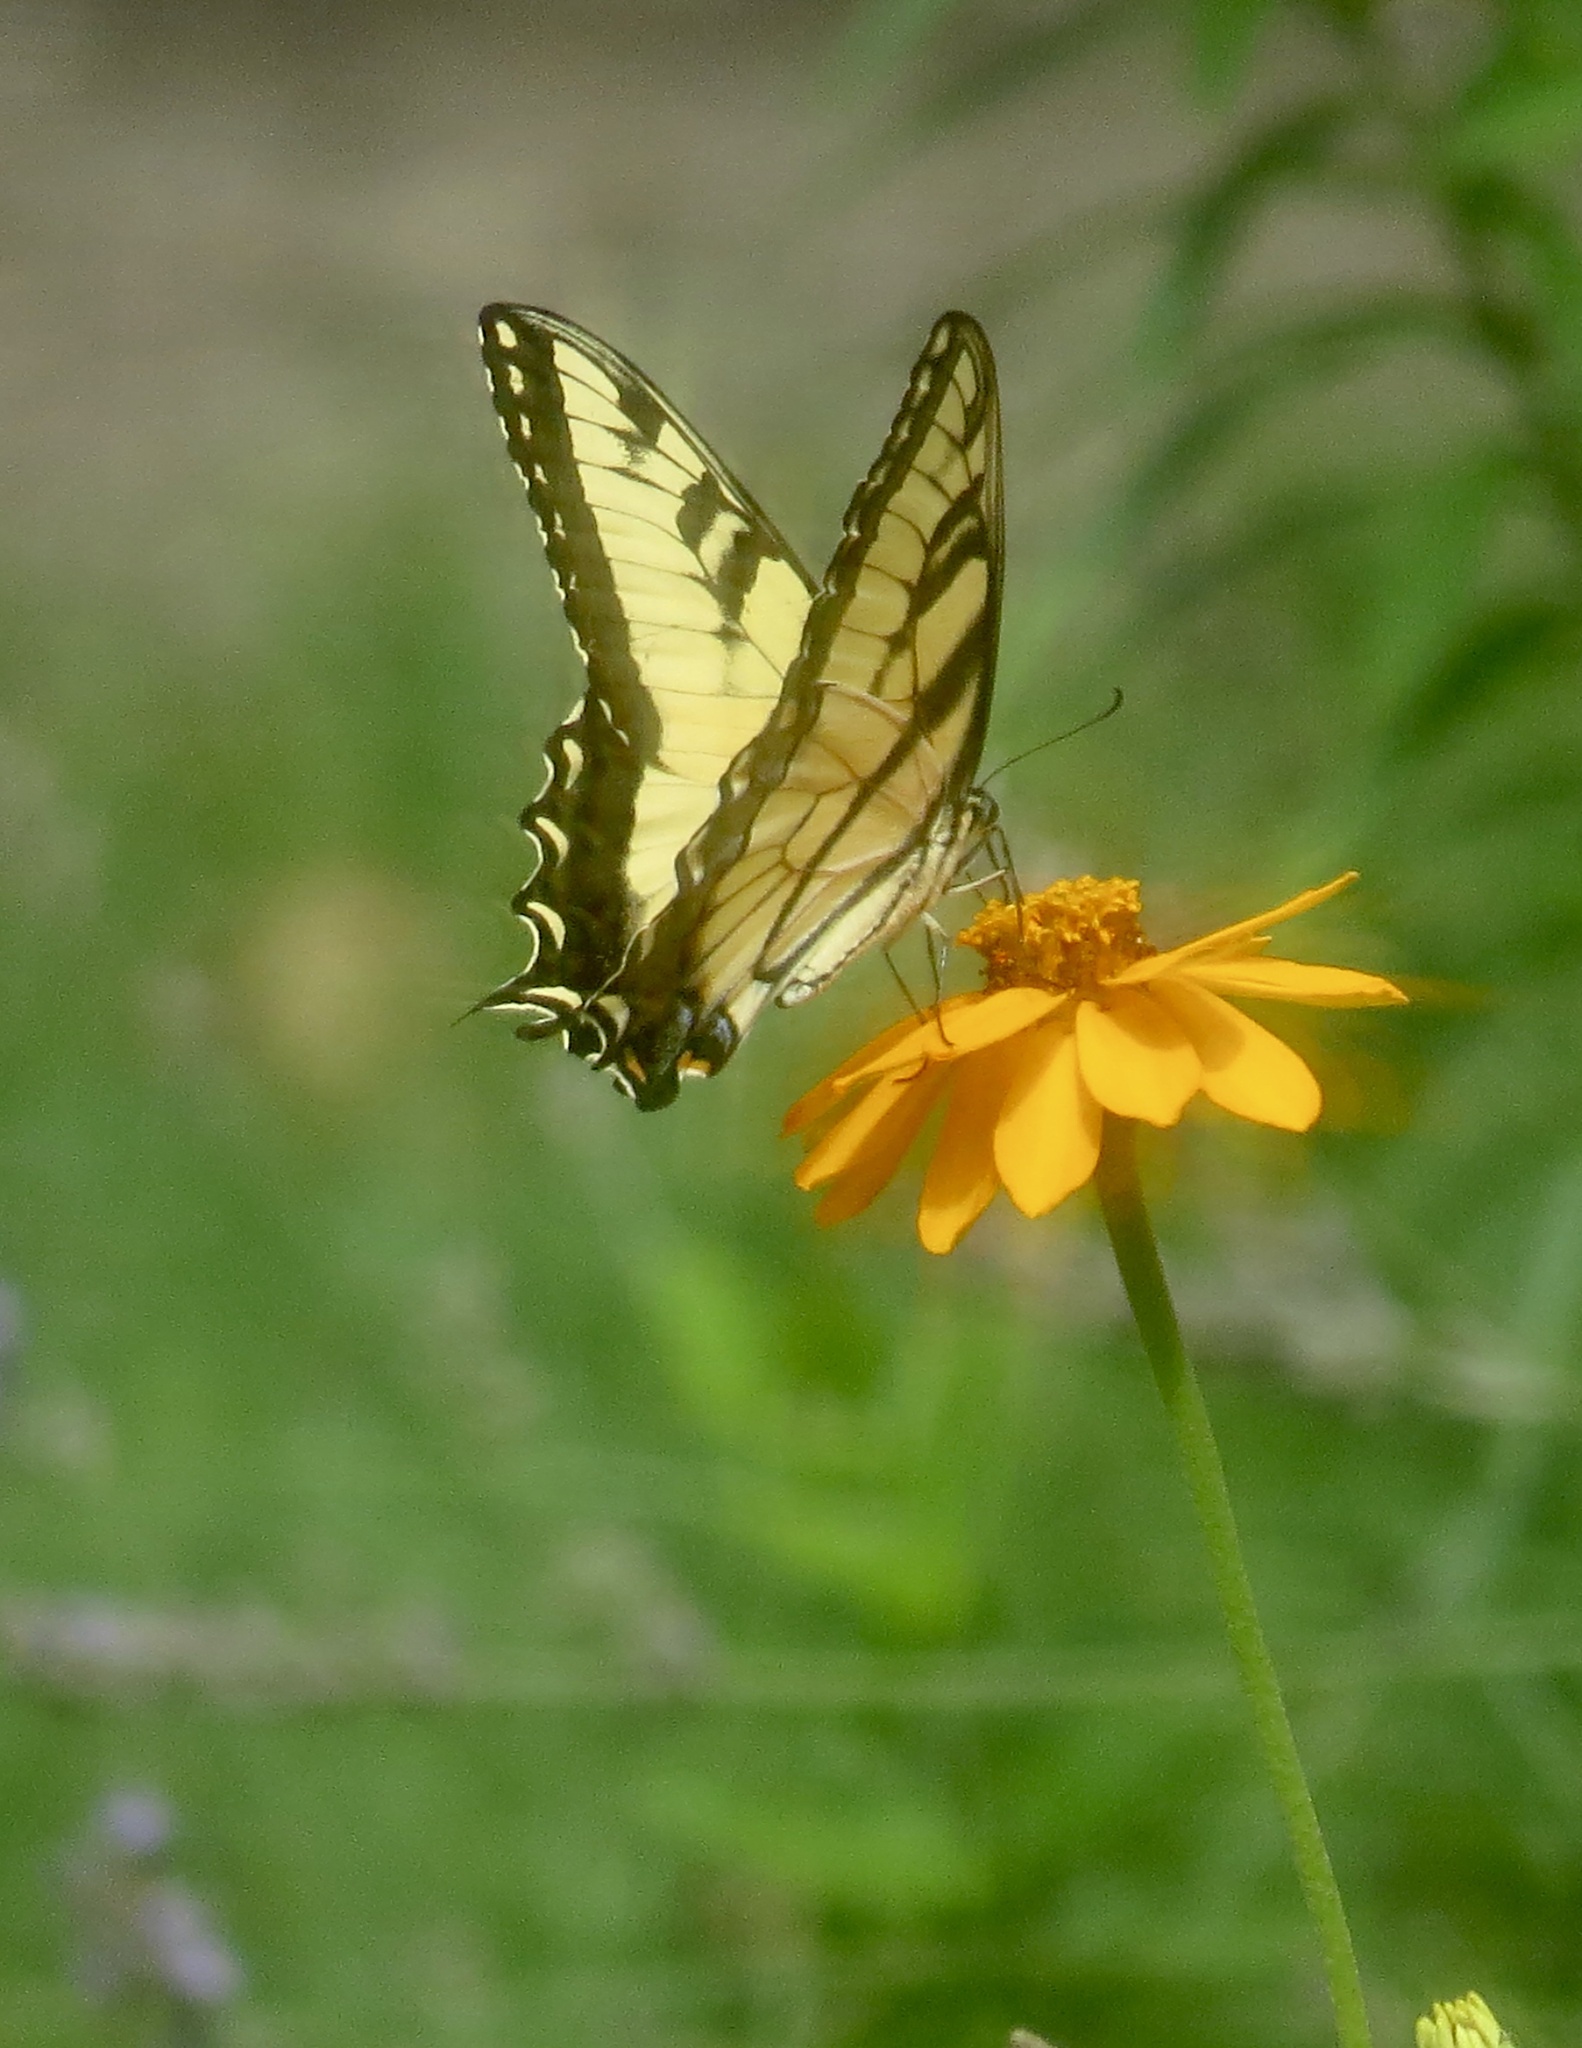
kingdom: Animalia
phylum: Arthropoda
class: Insecta
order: Lepidoptera
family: Papilionidae
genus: Papilio
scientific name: Papilio glaucus
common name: Tiger swallowtail
